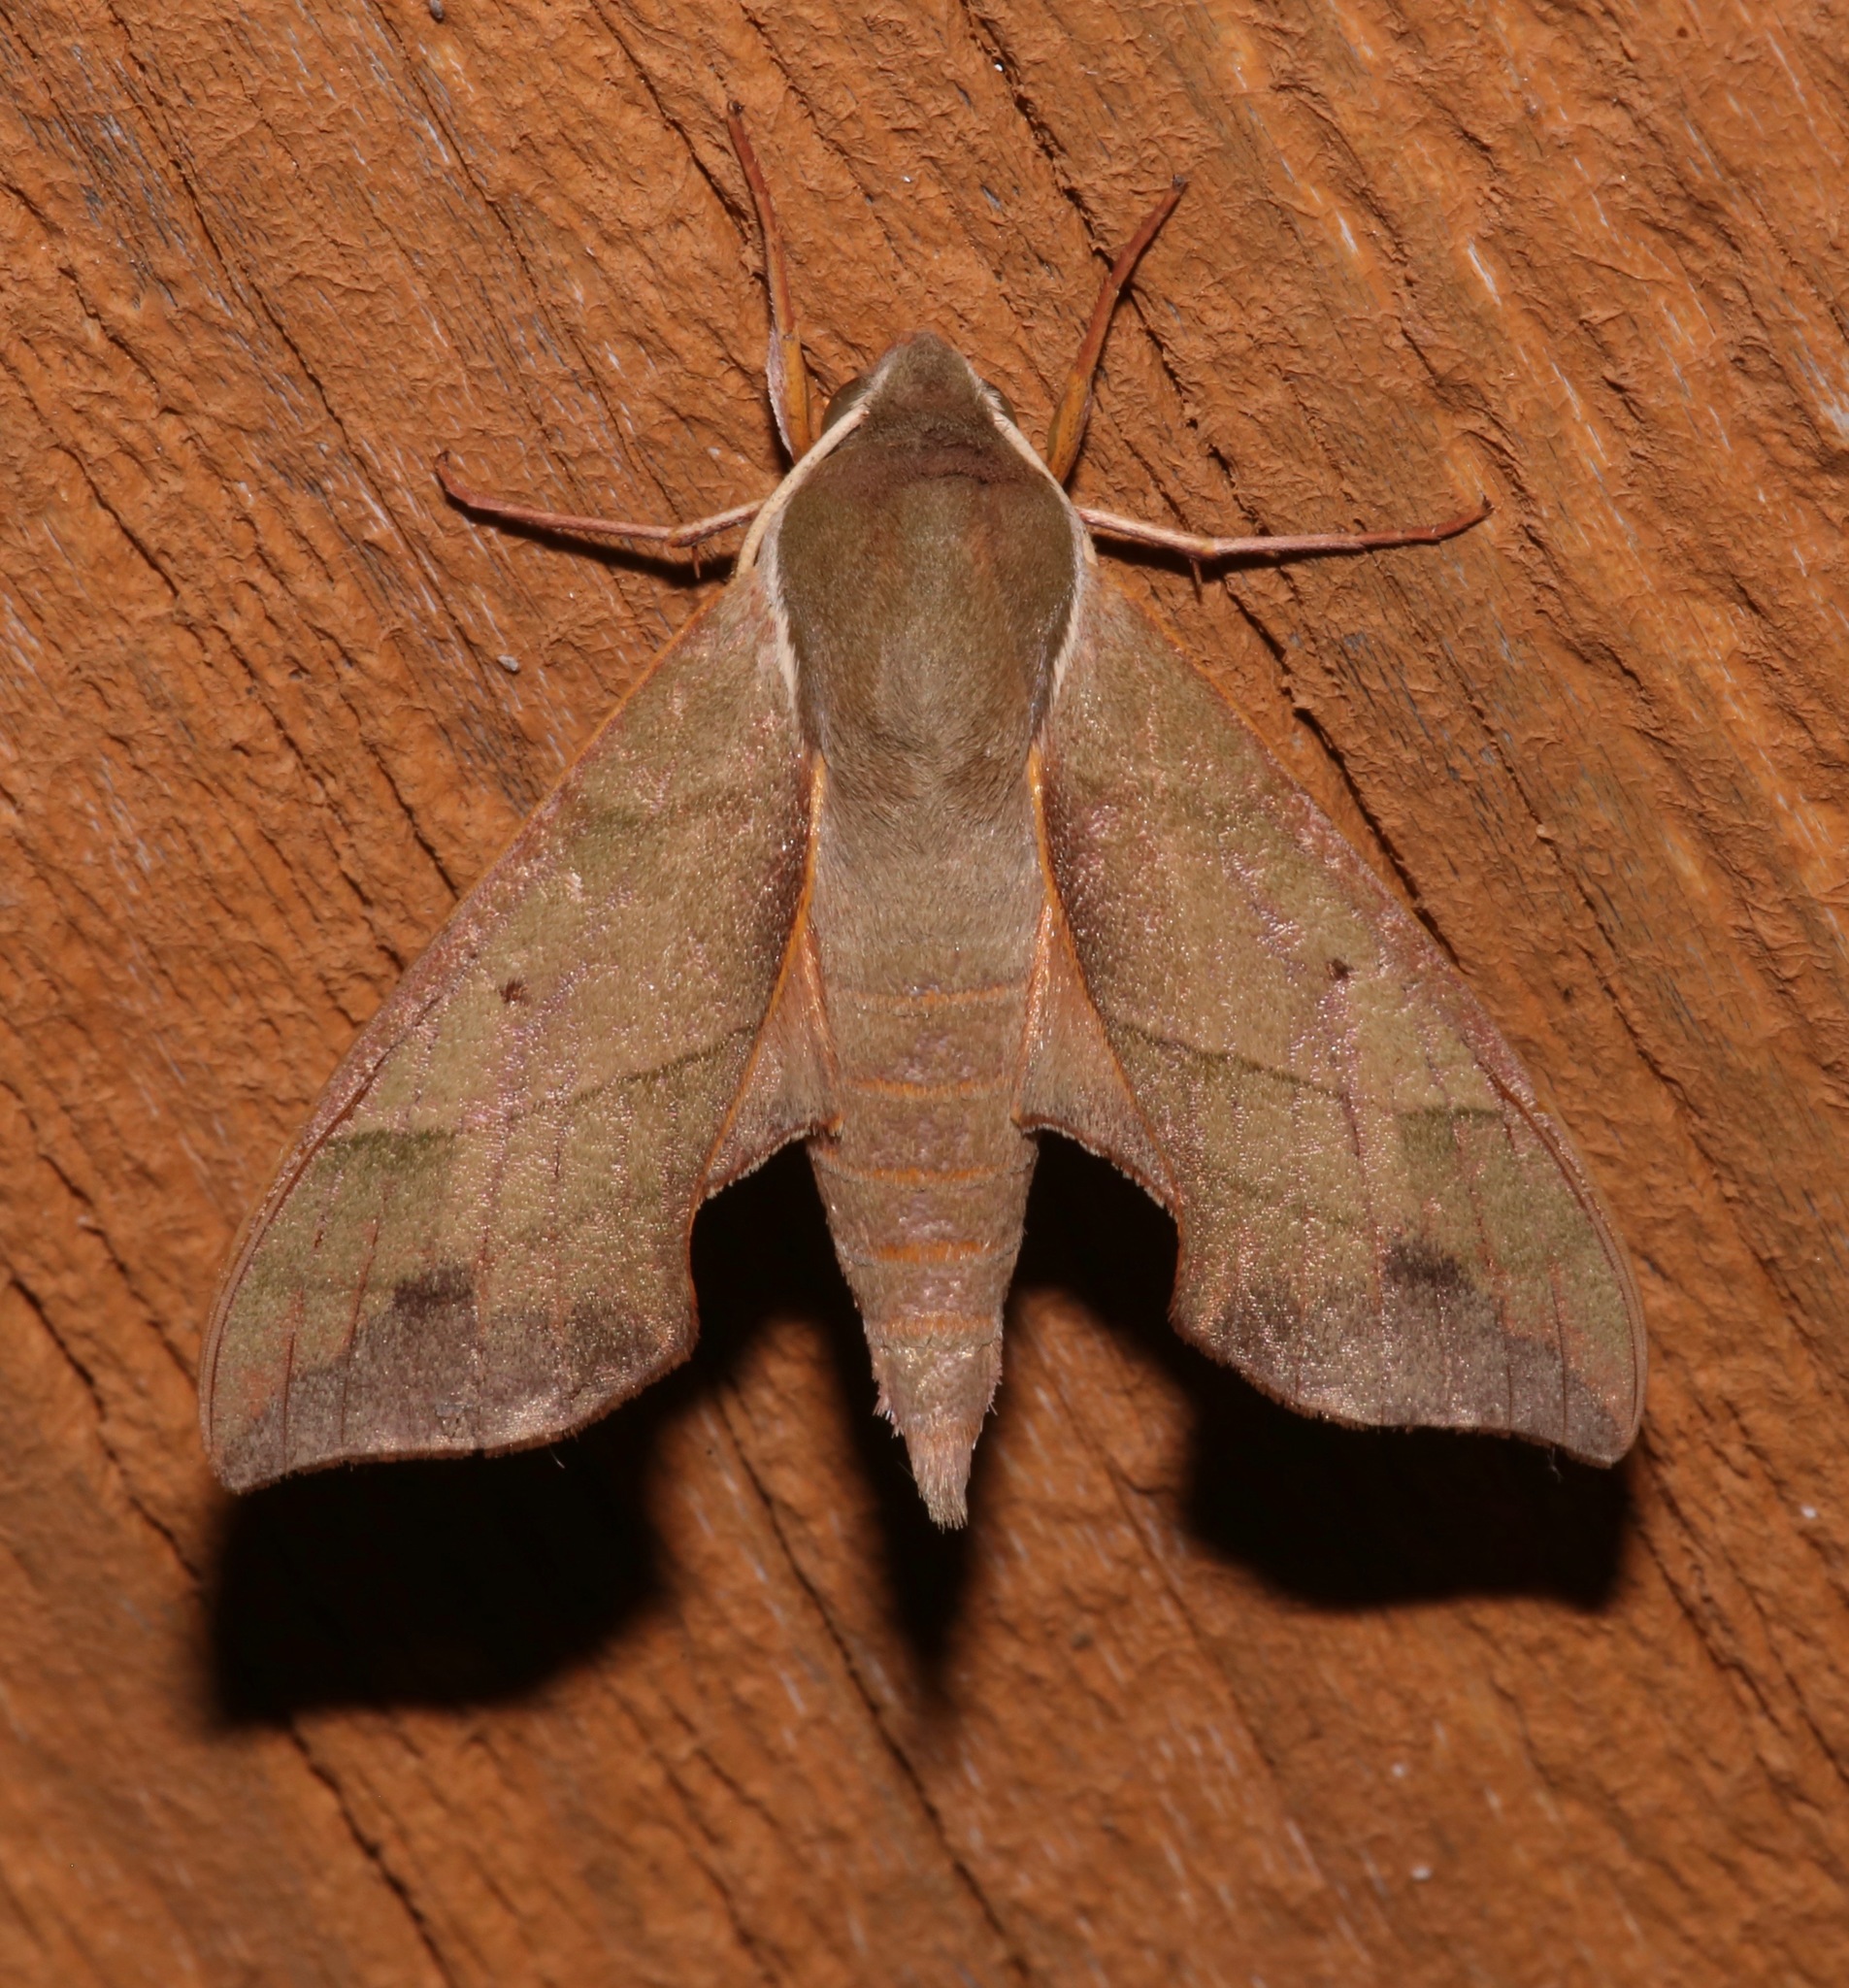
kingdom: Animalia
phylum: Arthropoda
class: Insecta
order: Lepidoptera
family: Sphingidae
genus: Darapsa
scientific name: Darapsa myron
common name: Hog sphinx
